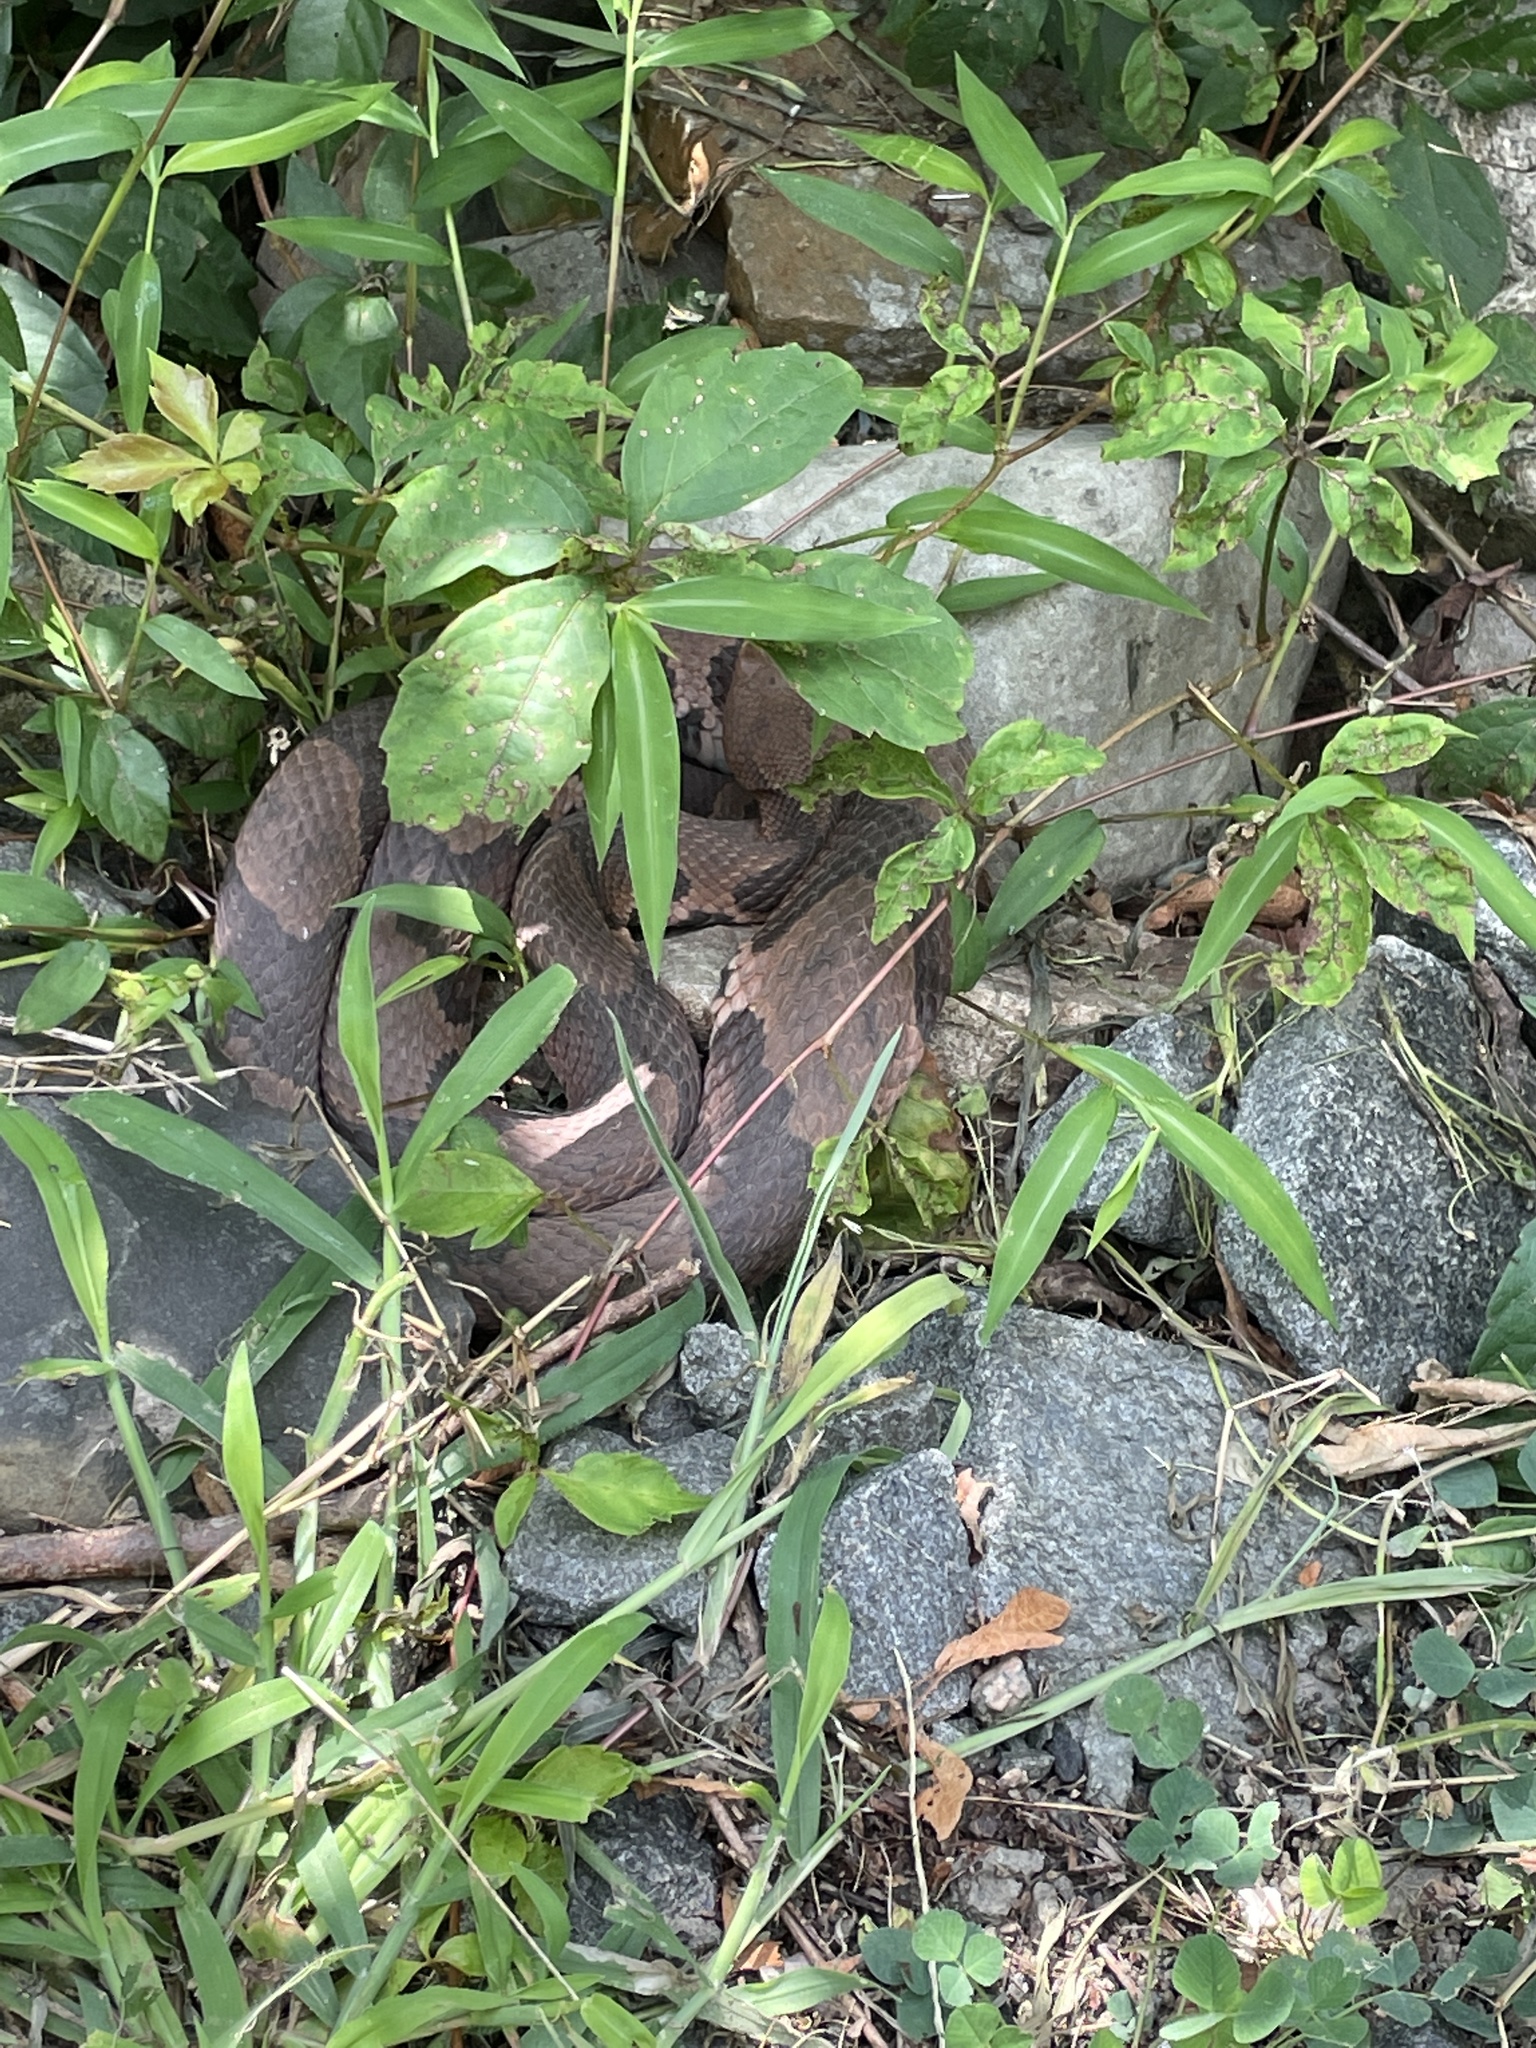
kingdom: Animalia
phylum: Chordata
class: Squamata
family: Viperidae
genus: Agkistrodon
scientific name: Agkistrodon contortrix
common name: Northern copperhead
